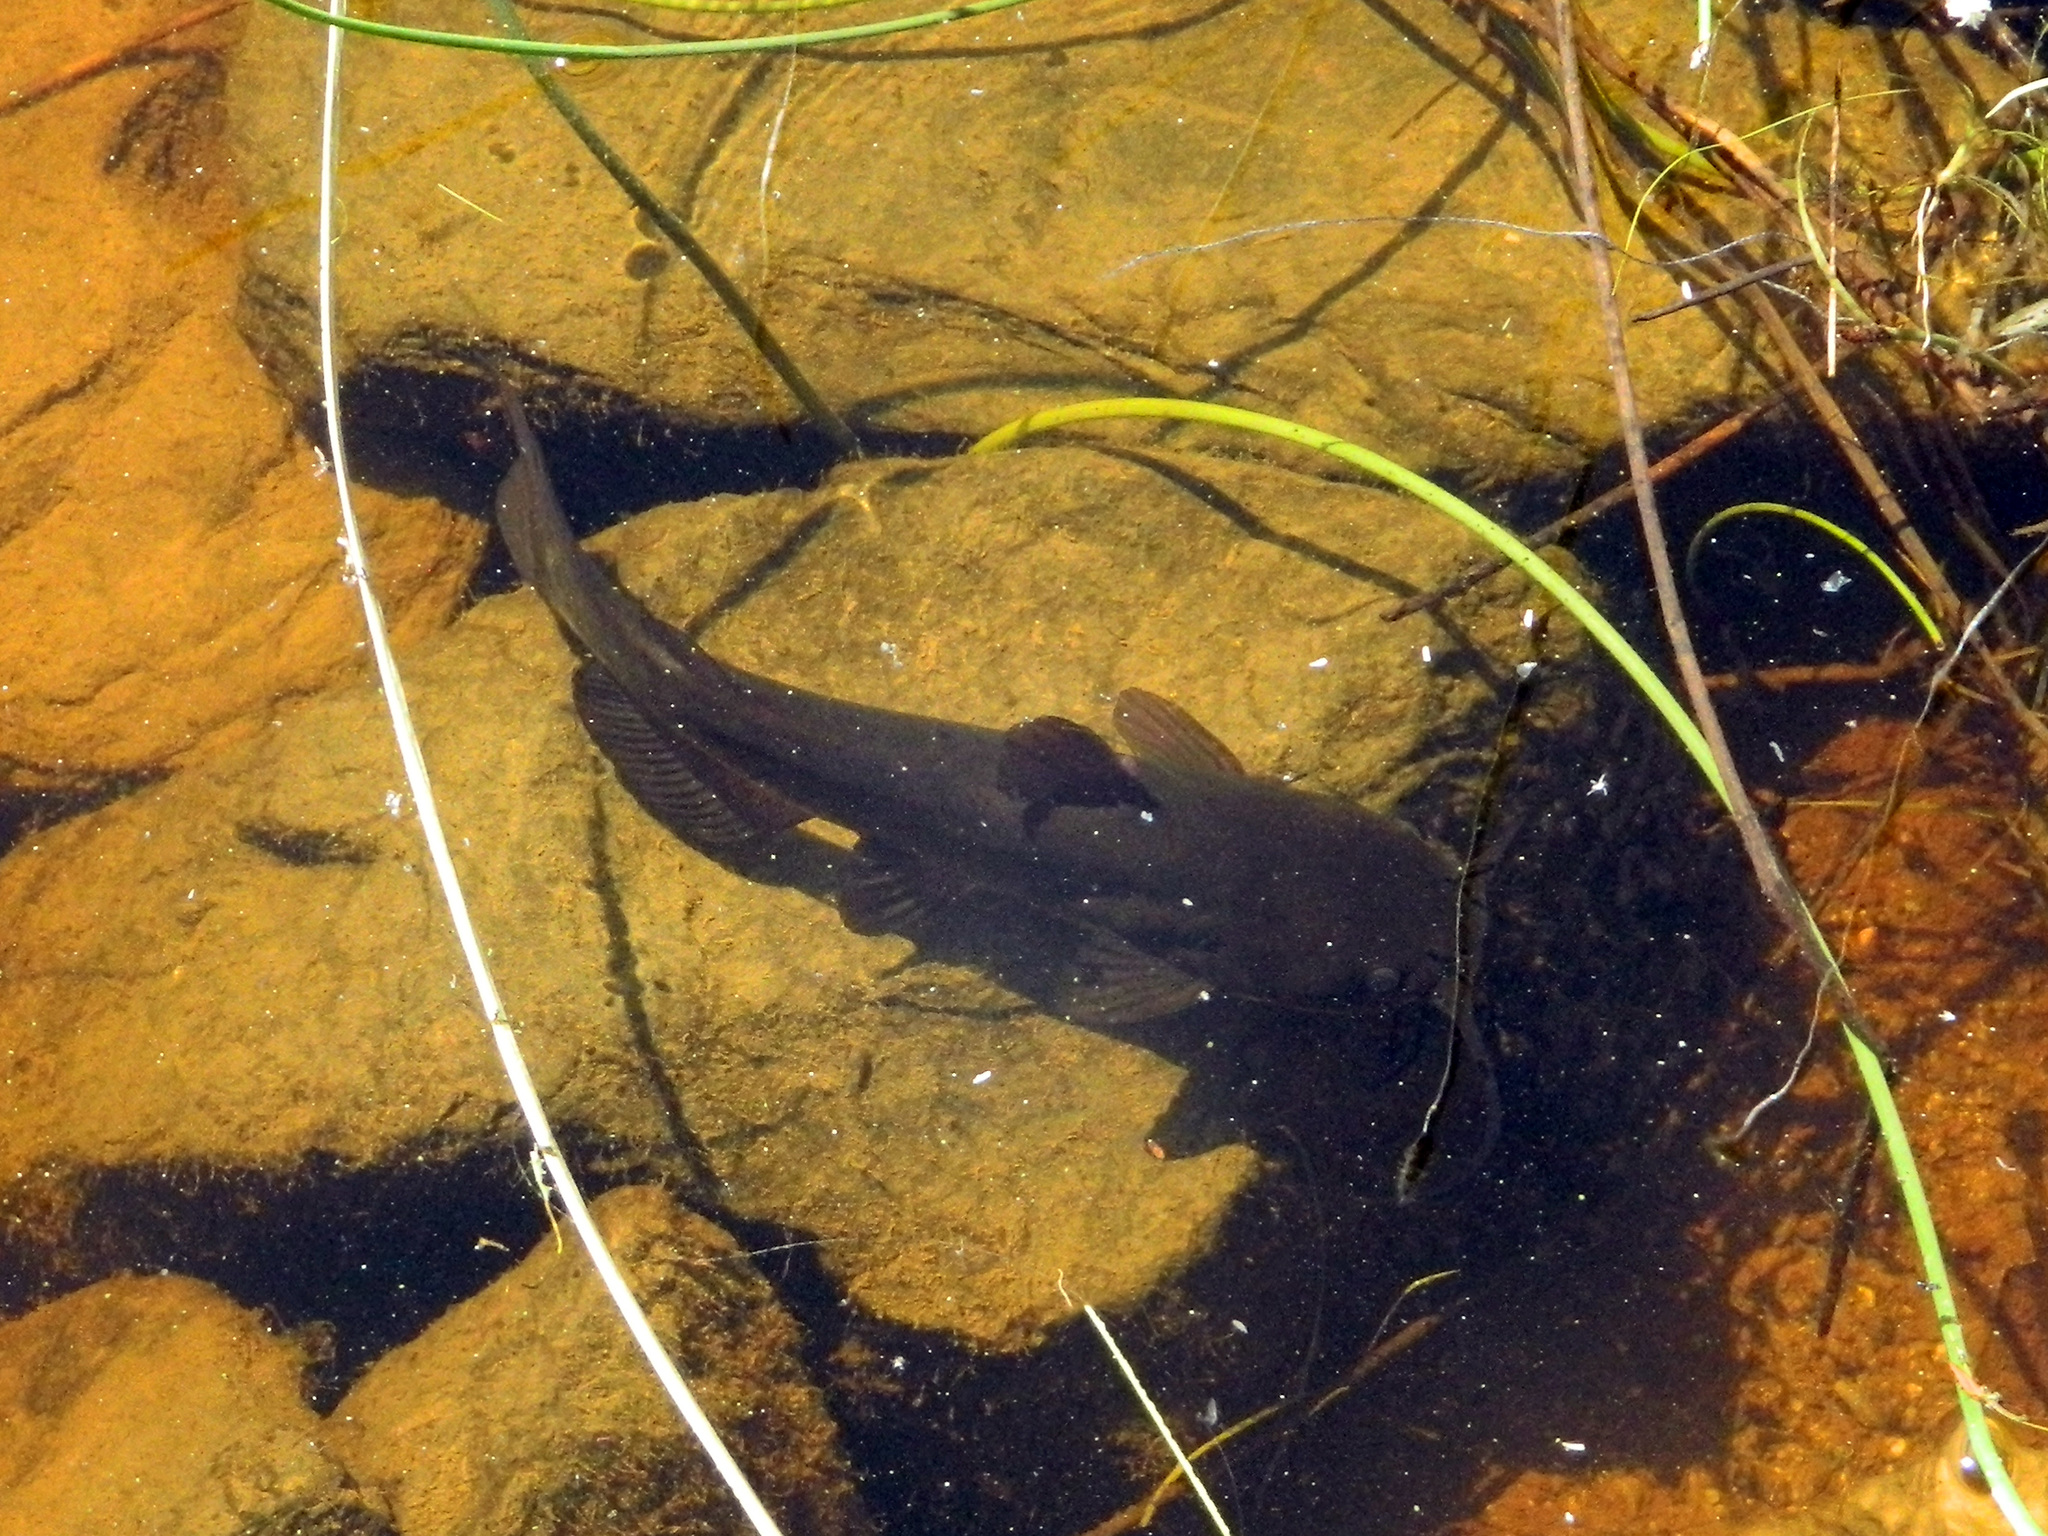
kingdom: Animalia
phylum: Chordata
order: Siluriformes
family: Ictaluridae
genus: Ameiurus
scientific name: Ameiurus nebulosus
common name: Brown bullhead
